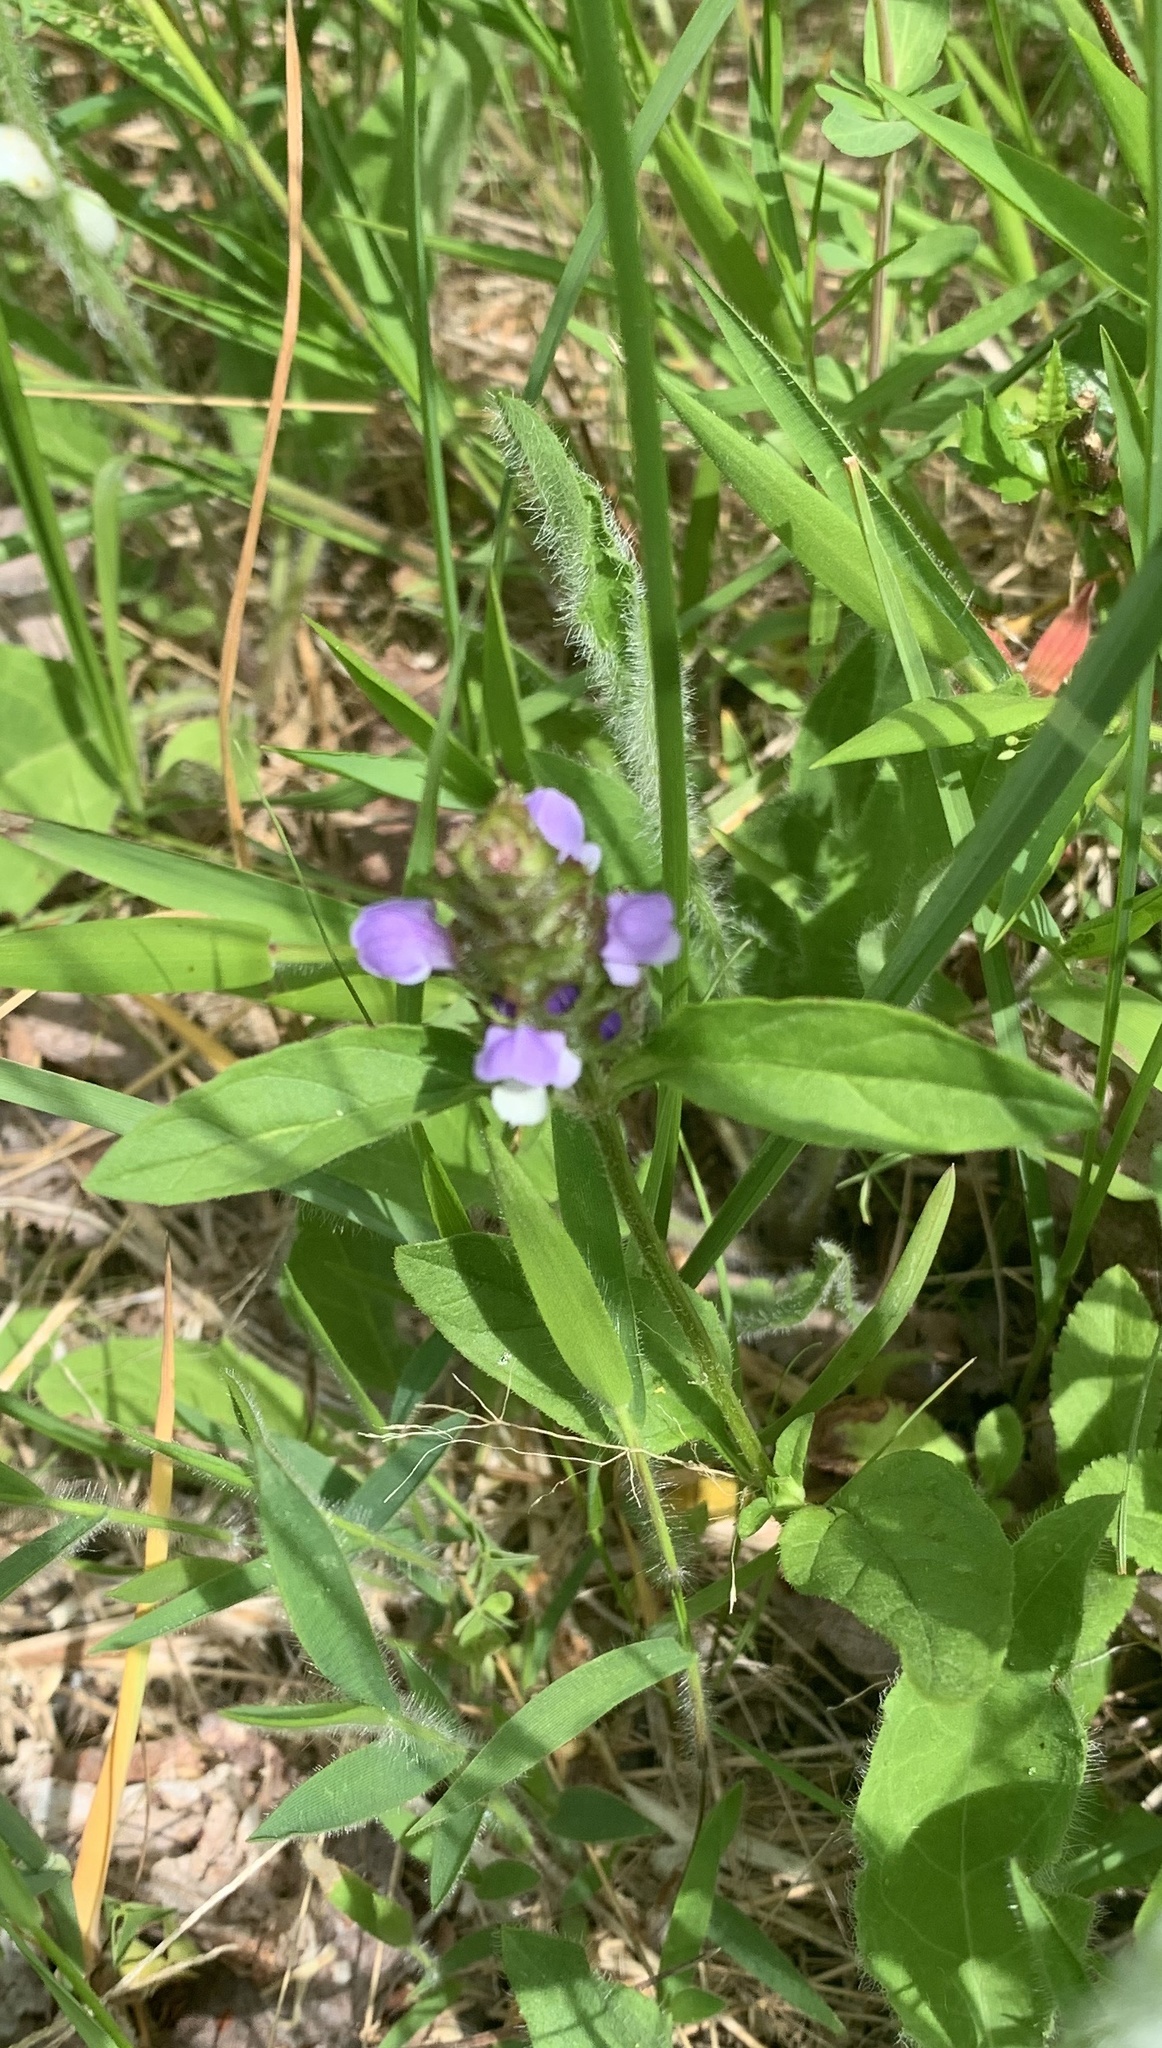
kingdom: Plantae
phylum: Tracheophyta
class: Magnoliopsida
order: Lamiales
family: Lamiaceae
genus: Prunella
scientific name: Prunella vulgaris
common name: Heal-all
